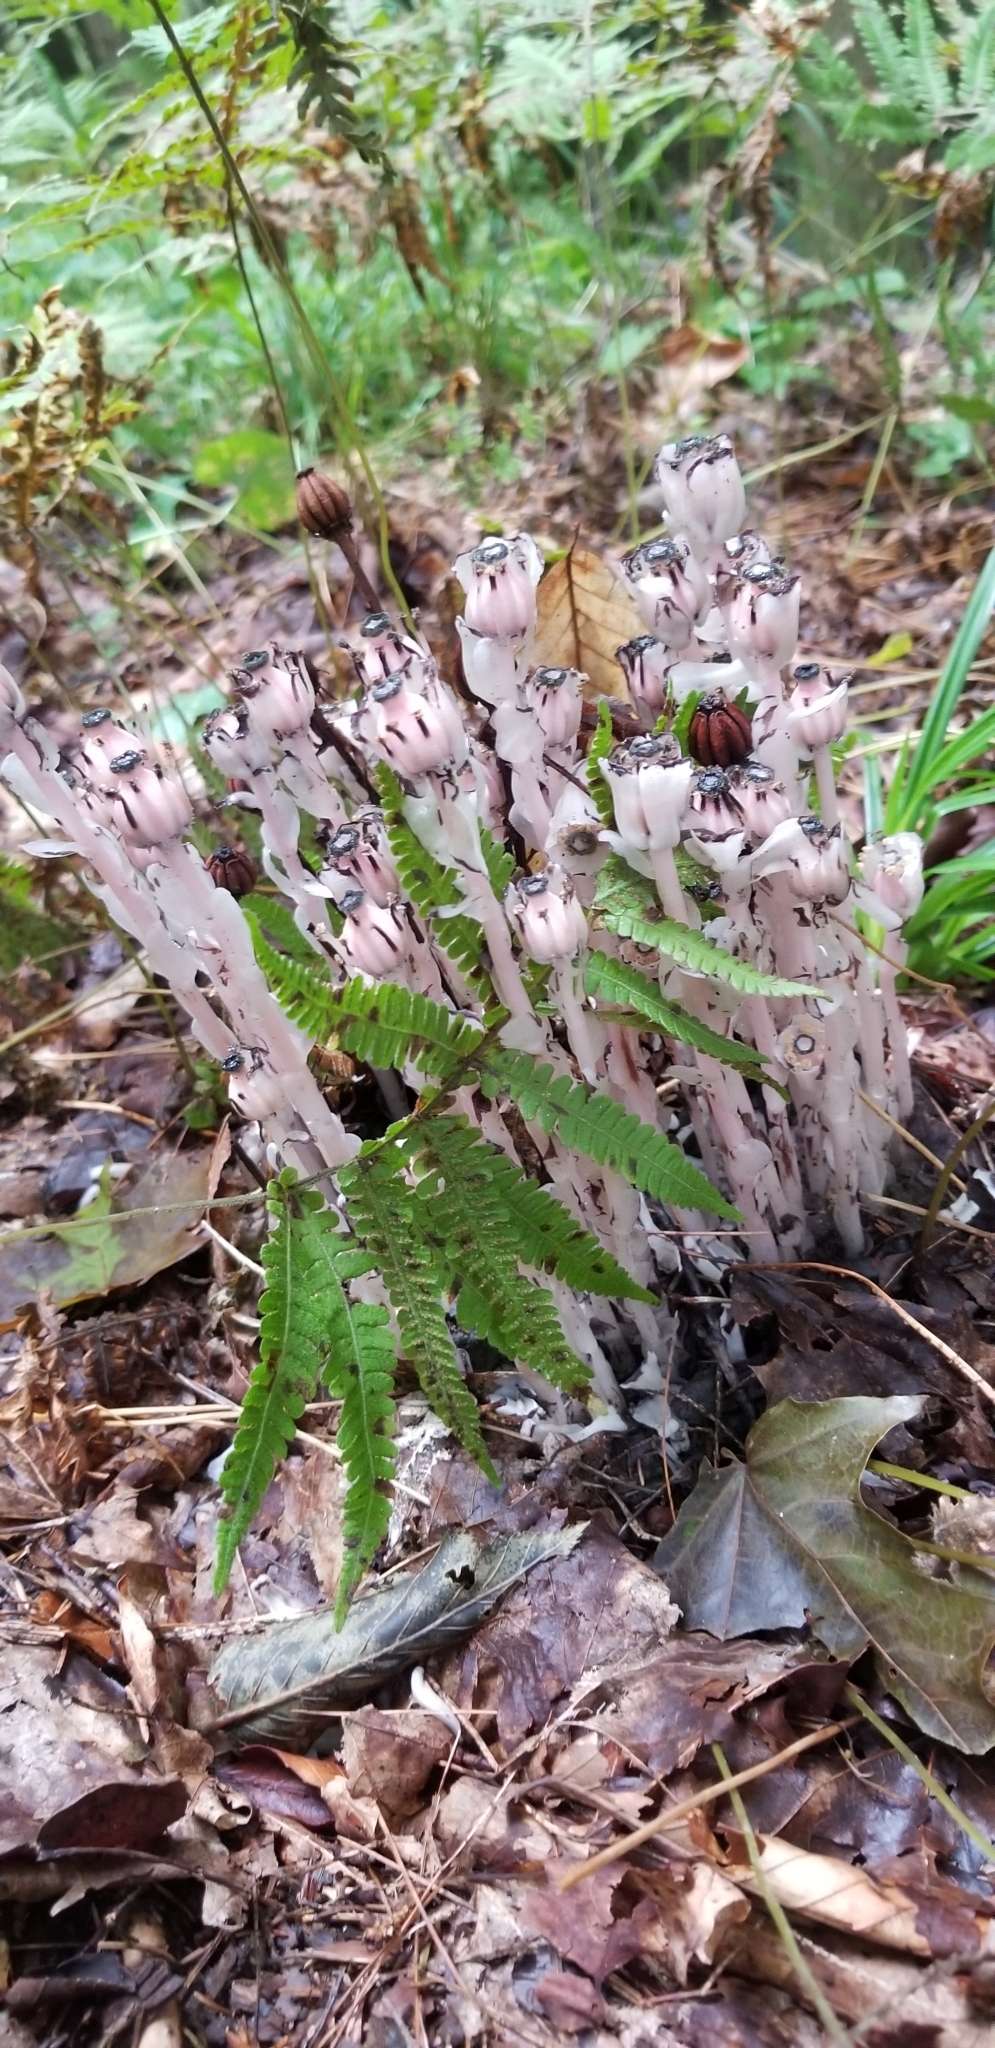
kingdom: Plantae
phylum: Tracheophyta
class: Magnoliopsida
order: Ericales
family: Ericaceae
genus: Monotropa
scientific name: Monotropa uniflora
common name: Convulsion root
